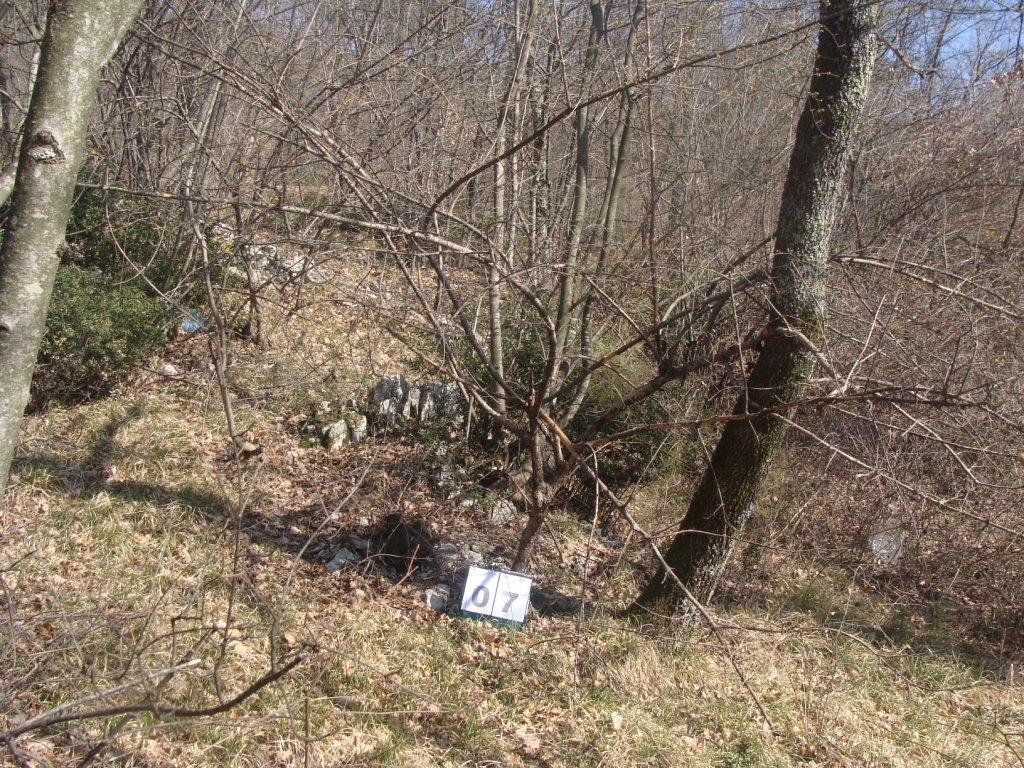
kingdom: Plantae
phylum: Tracheophyta
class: Magnoliopsida
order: Cornales
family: Cornaceae
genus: Cornus
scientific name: Cornus mas
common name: Cornelian-cherry
